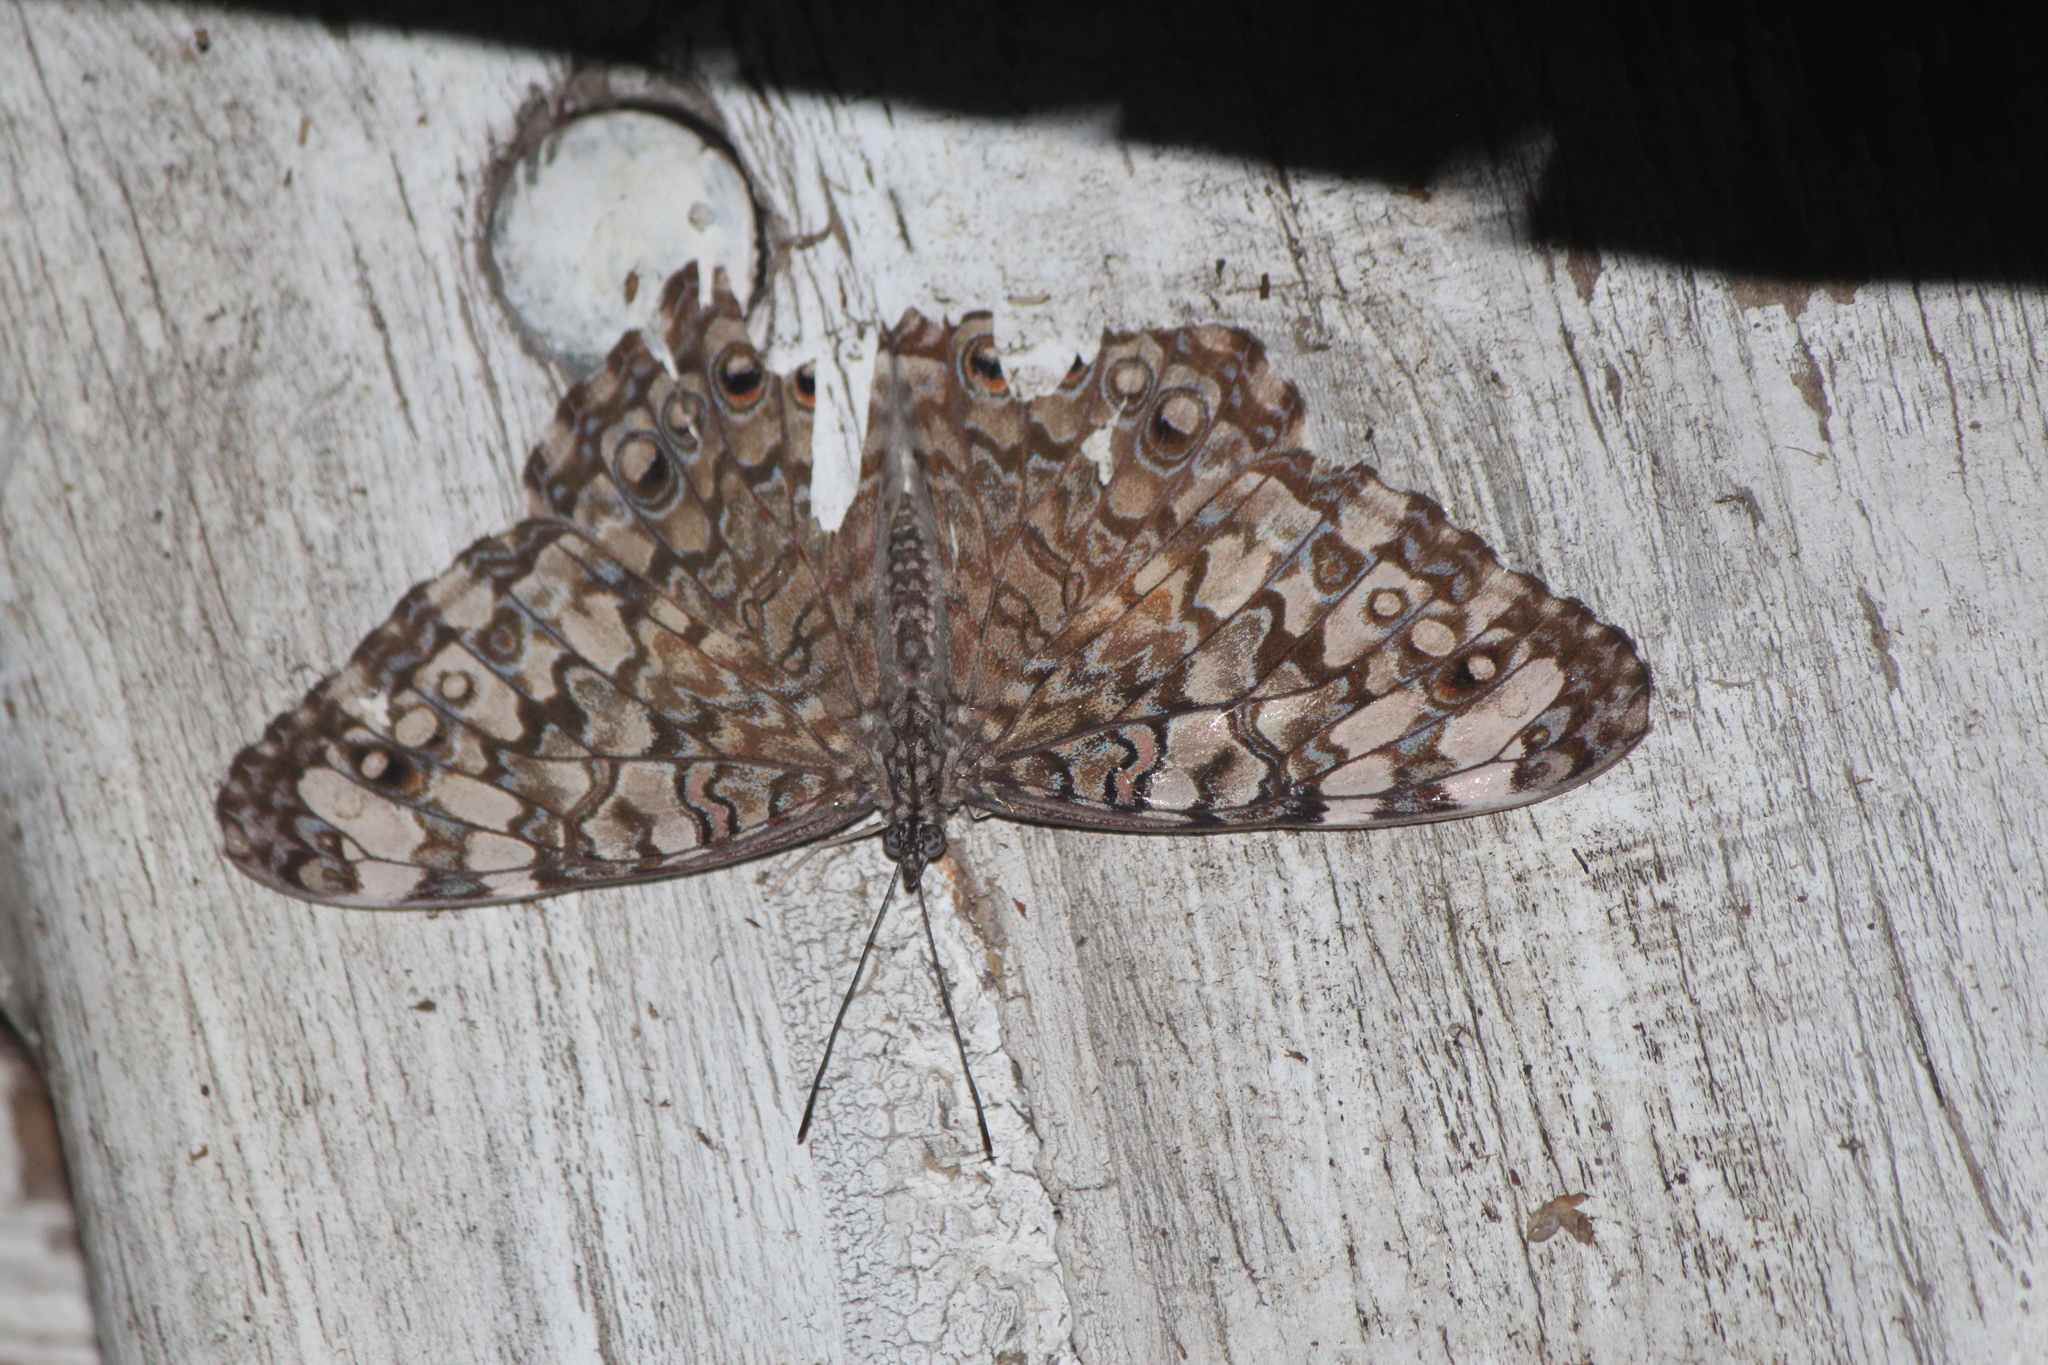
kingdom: Animalia
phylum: Arthropoda
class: Insecta
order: Lepidoptera
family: Nymphalidae
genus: Hamadryas
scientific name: Hamadryas februa
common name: Gray cracker
